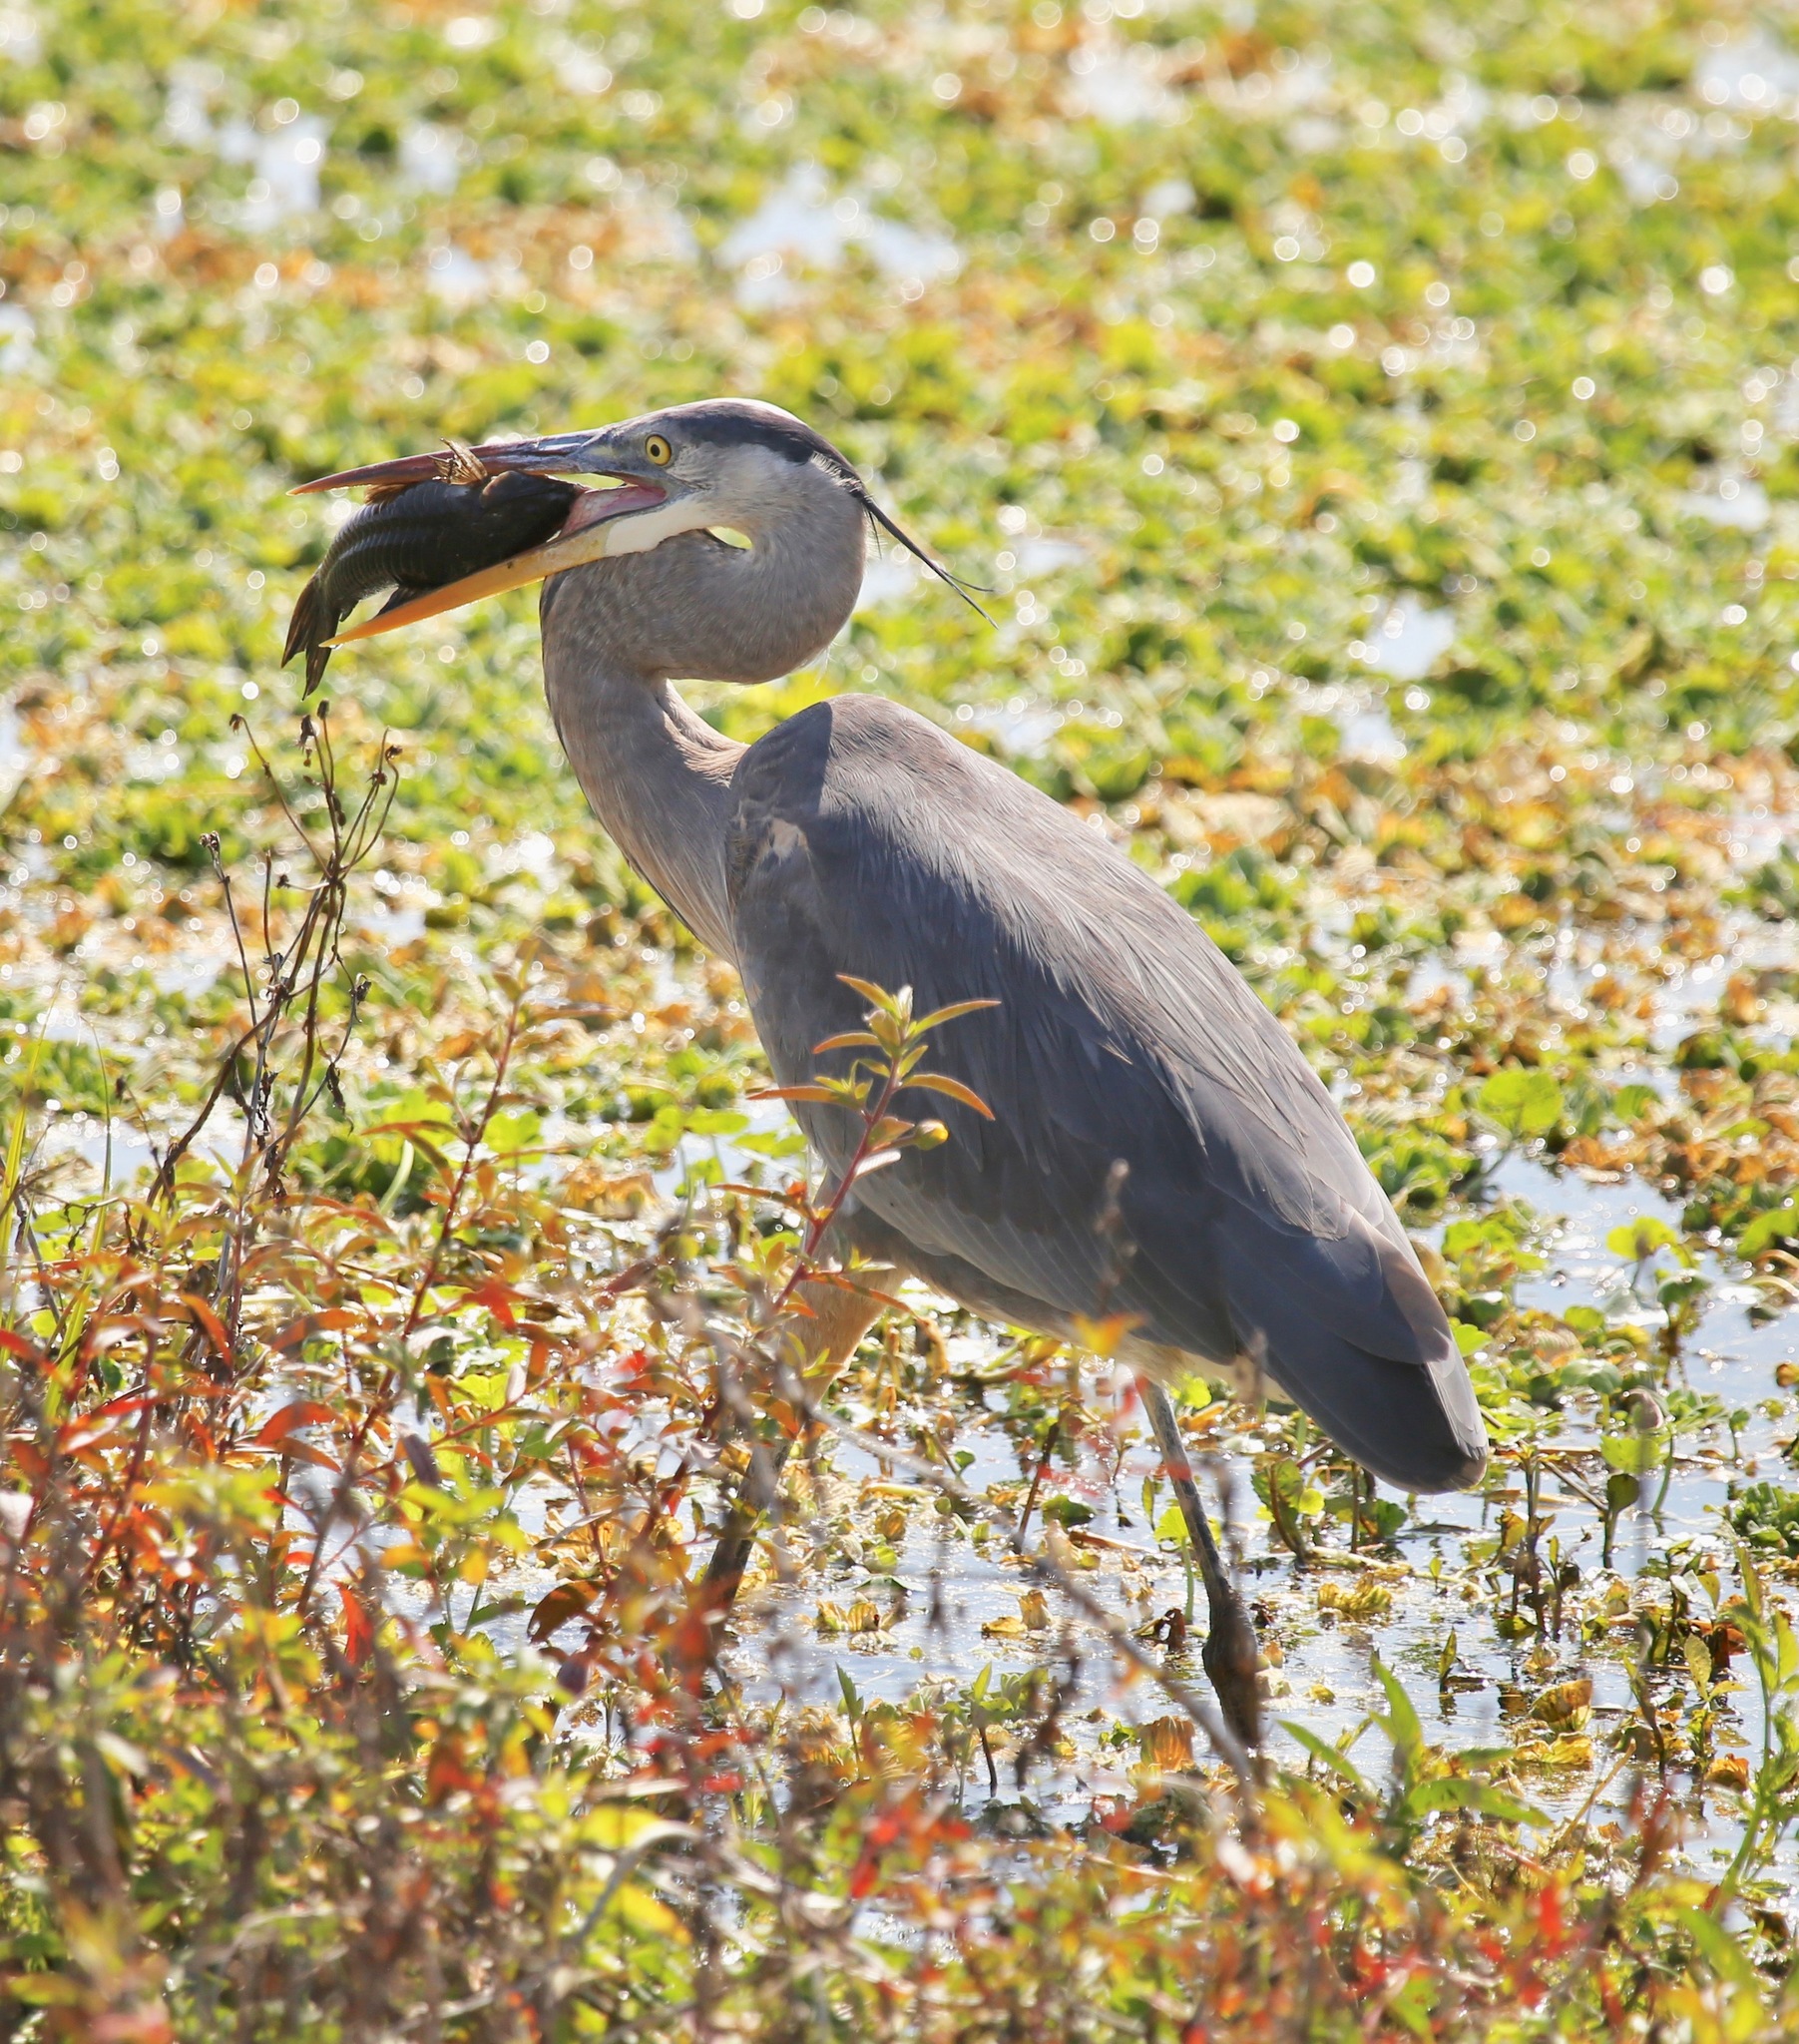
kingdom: Animalia
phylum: Chordata
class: Aves
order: Pelecaniformes
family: Ardeidae
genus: Ardea
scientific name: Ardea herodias
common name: Great blue heron
